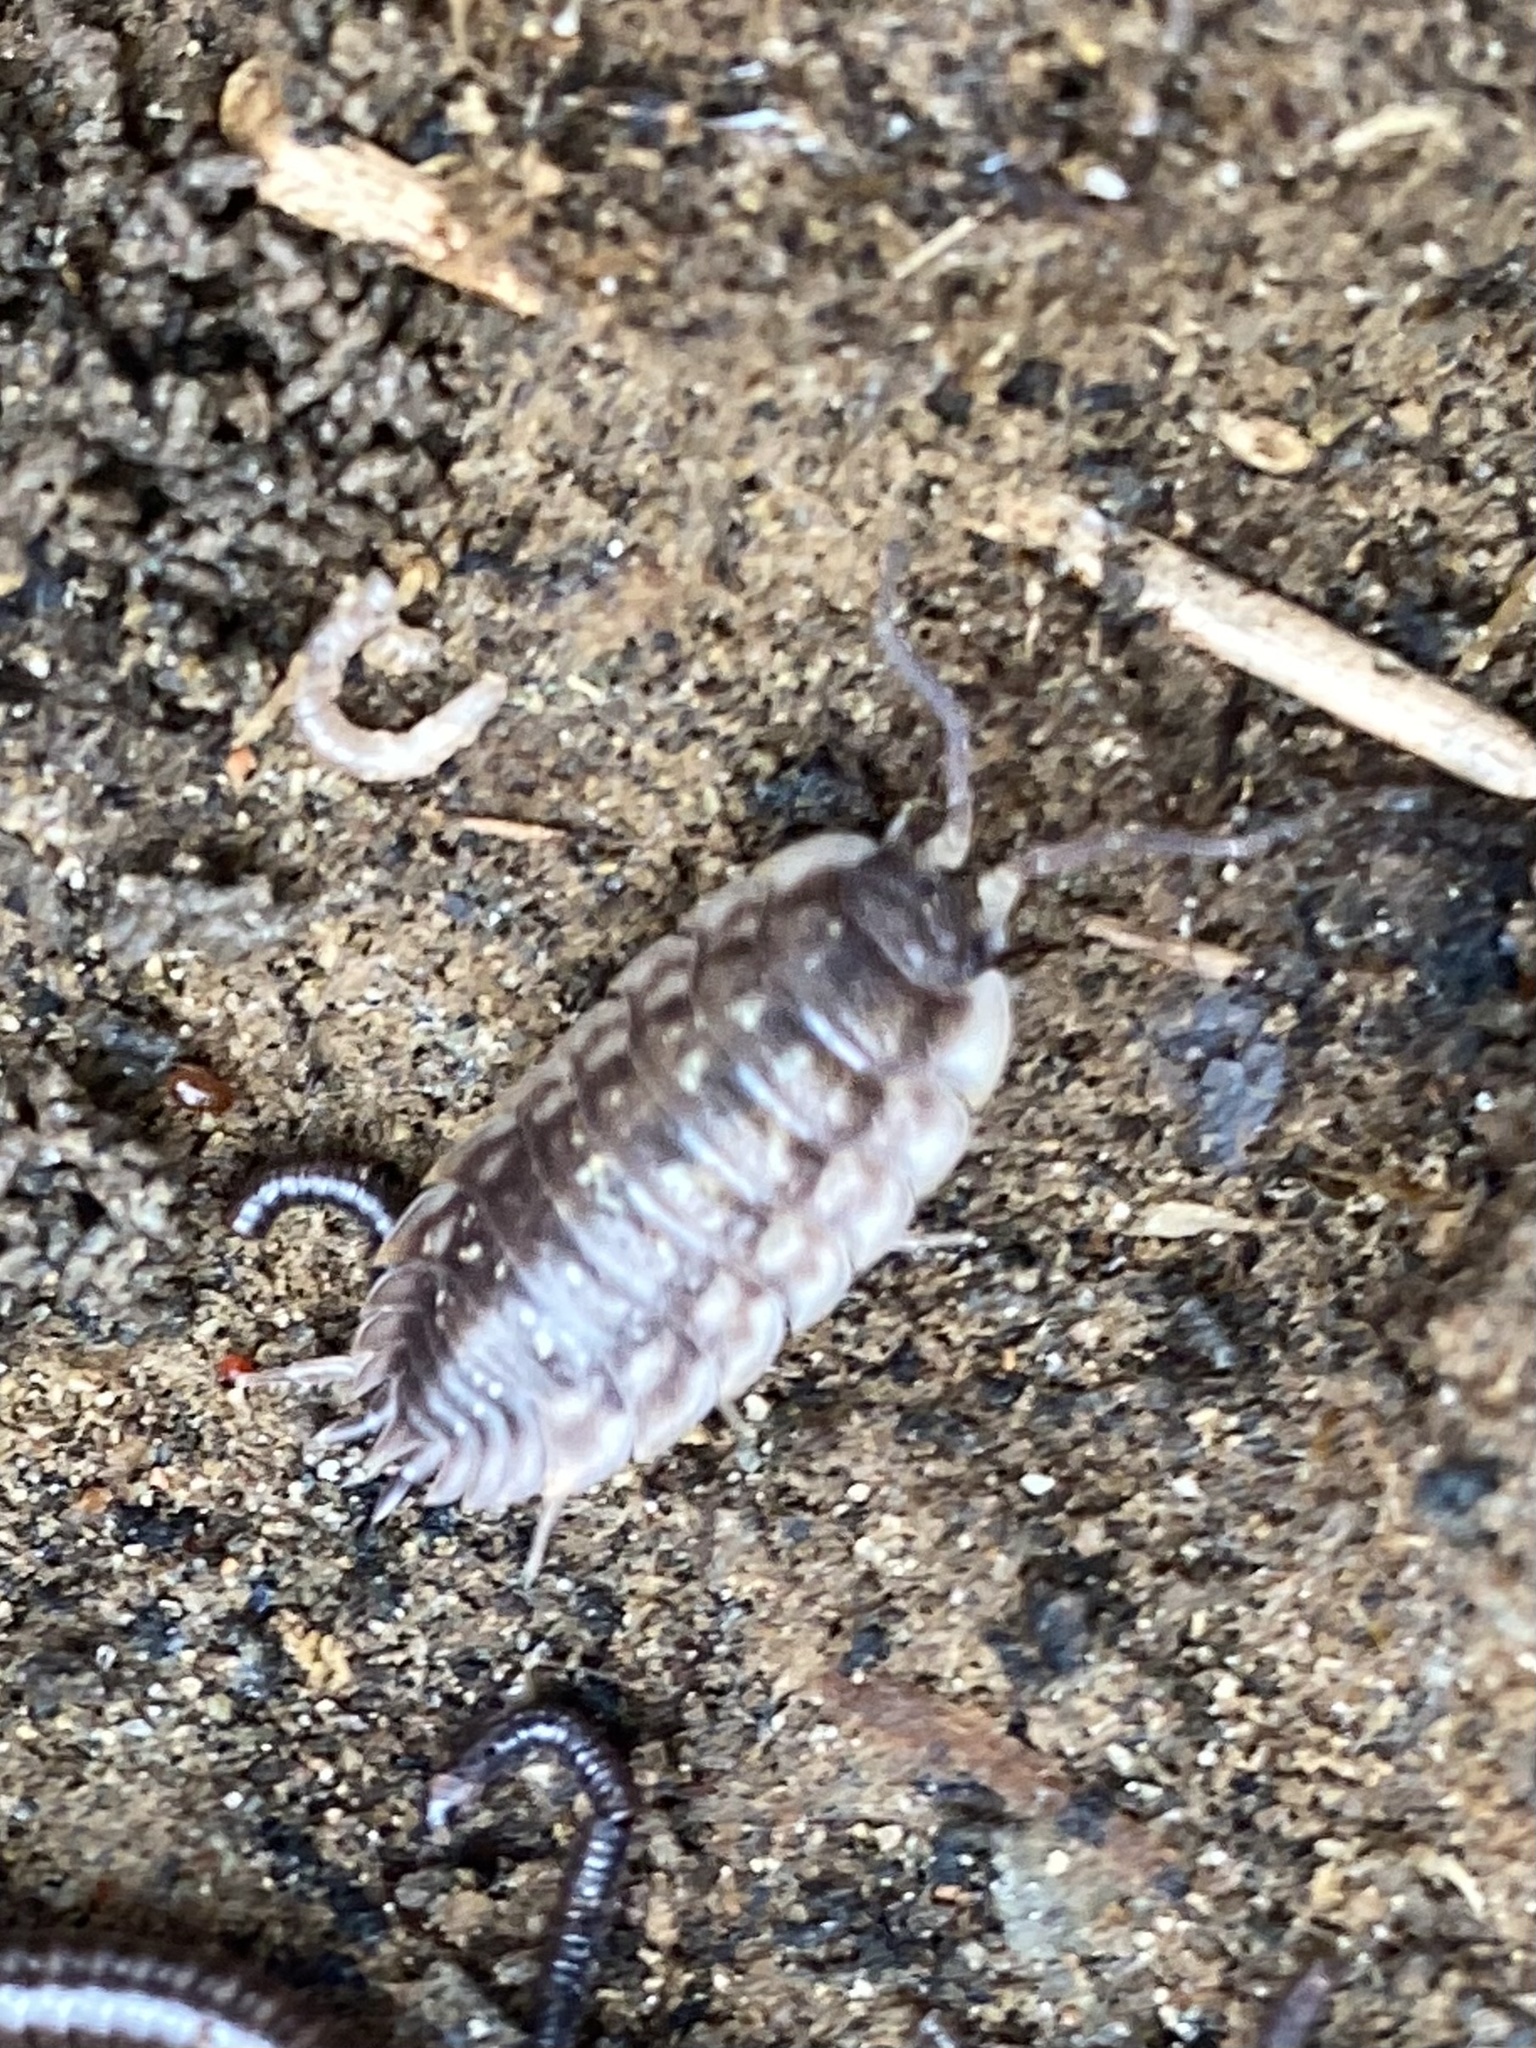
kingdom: Animalia
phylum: Arthropoda
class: Malacostraca
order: Isopoda
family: Oniscidae
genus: Oniscus
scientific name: Oniscus asellus
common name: Common shiny woodlouse
